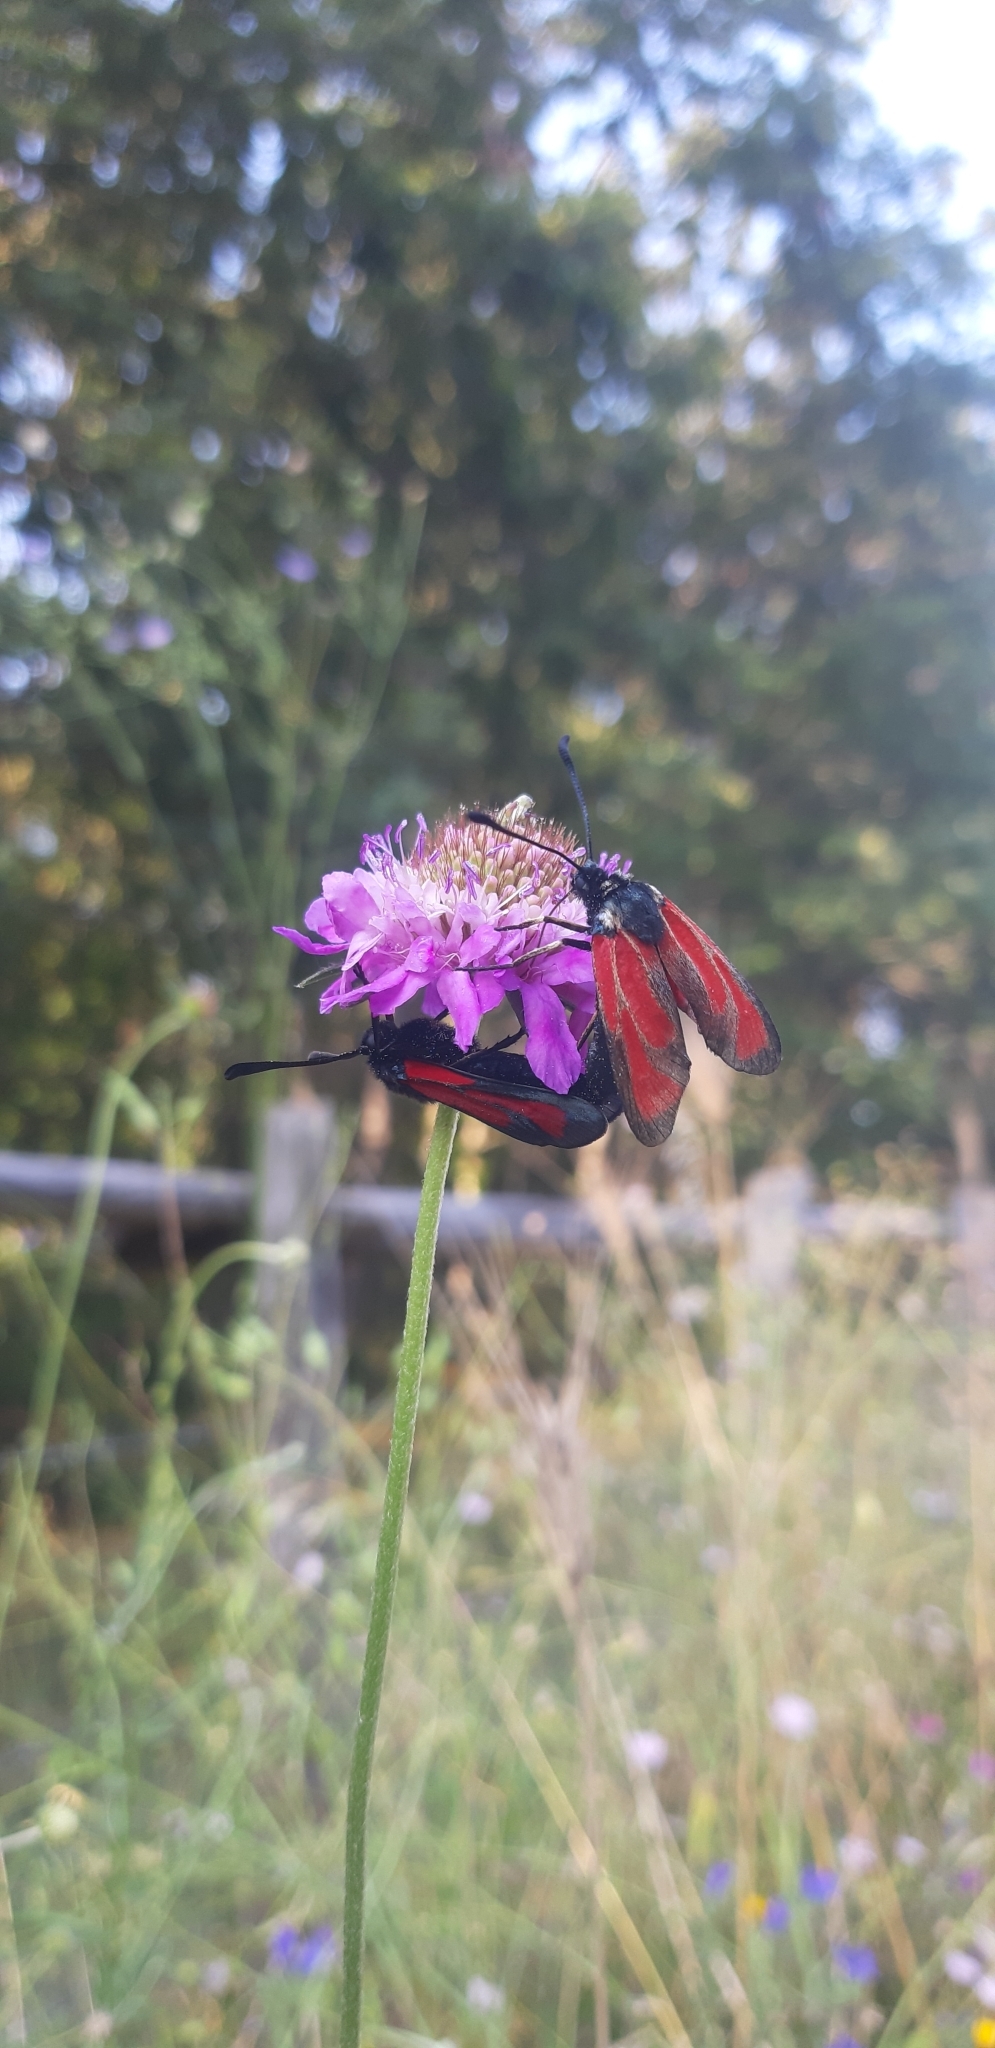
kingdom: Animalia
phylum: Arthropoda
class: Insecta
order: Lepidoptera
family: Zygaenidae
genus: Zygaena
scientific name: Zygaena erythrus
